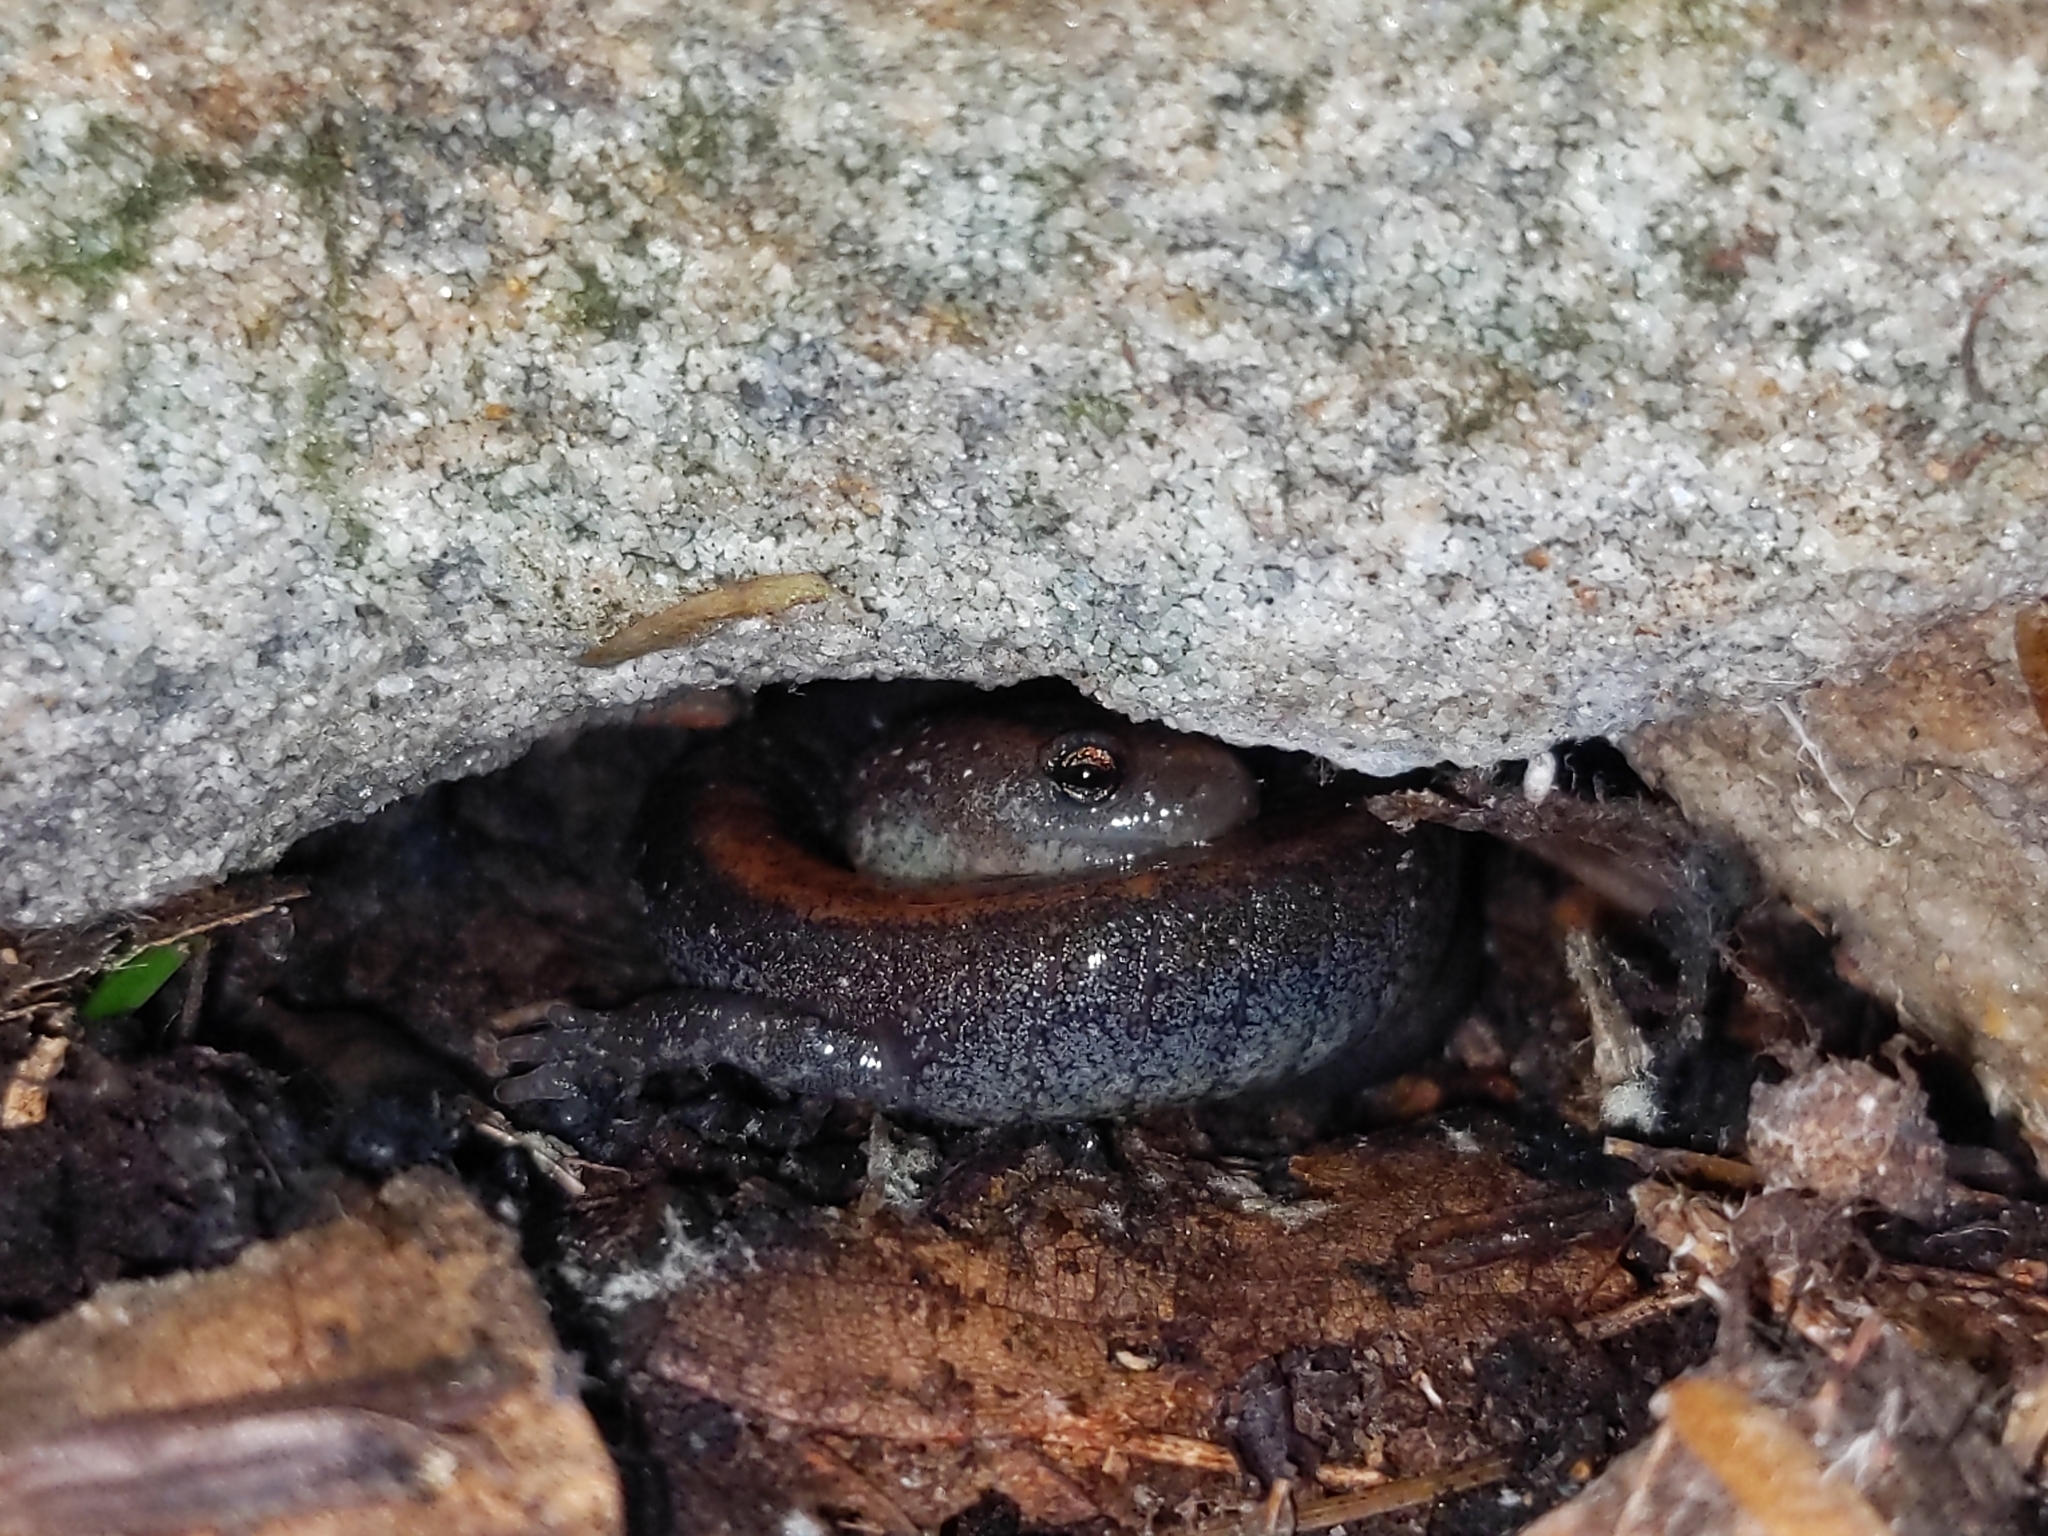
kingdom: Animalia
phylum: Chordata
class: Amphibia
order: Caudata
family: Plethodontidae
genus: Plethodon
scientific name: Plethodon cinereus
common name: Redback salamander
